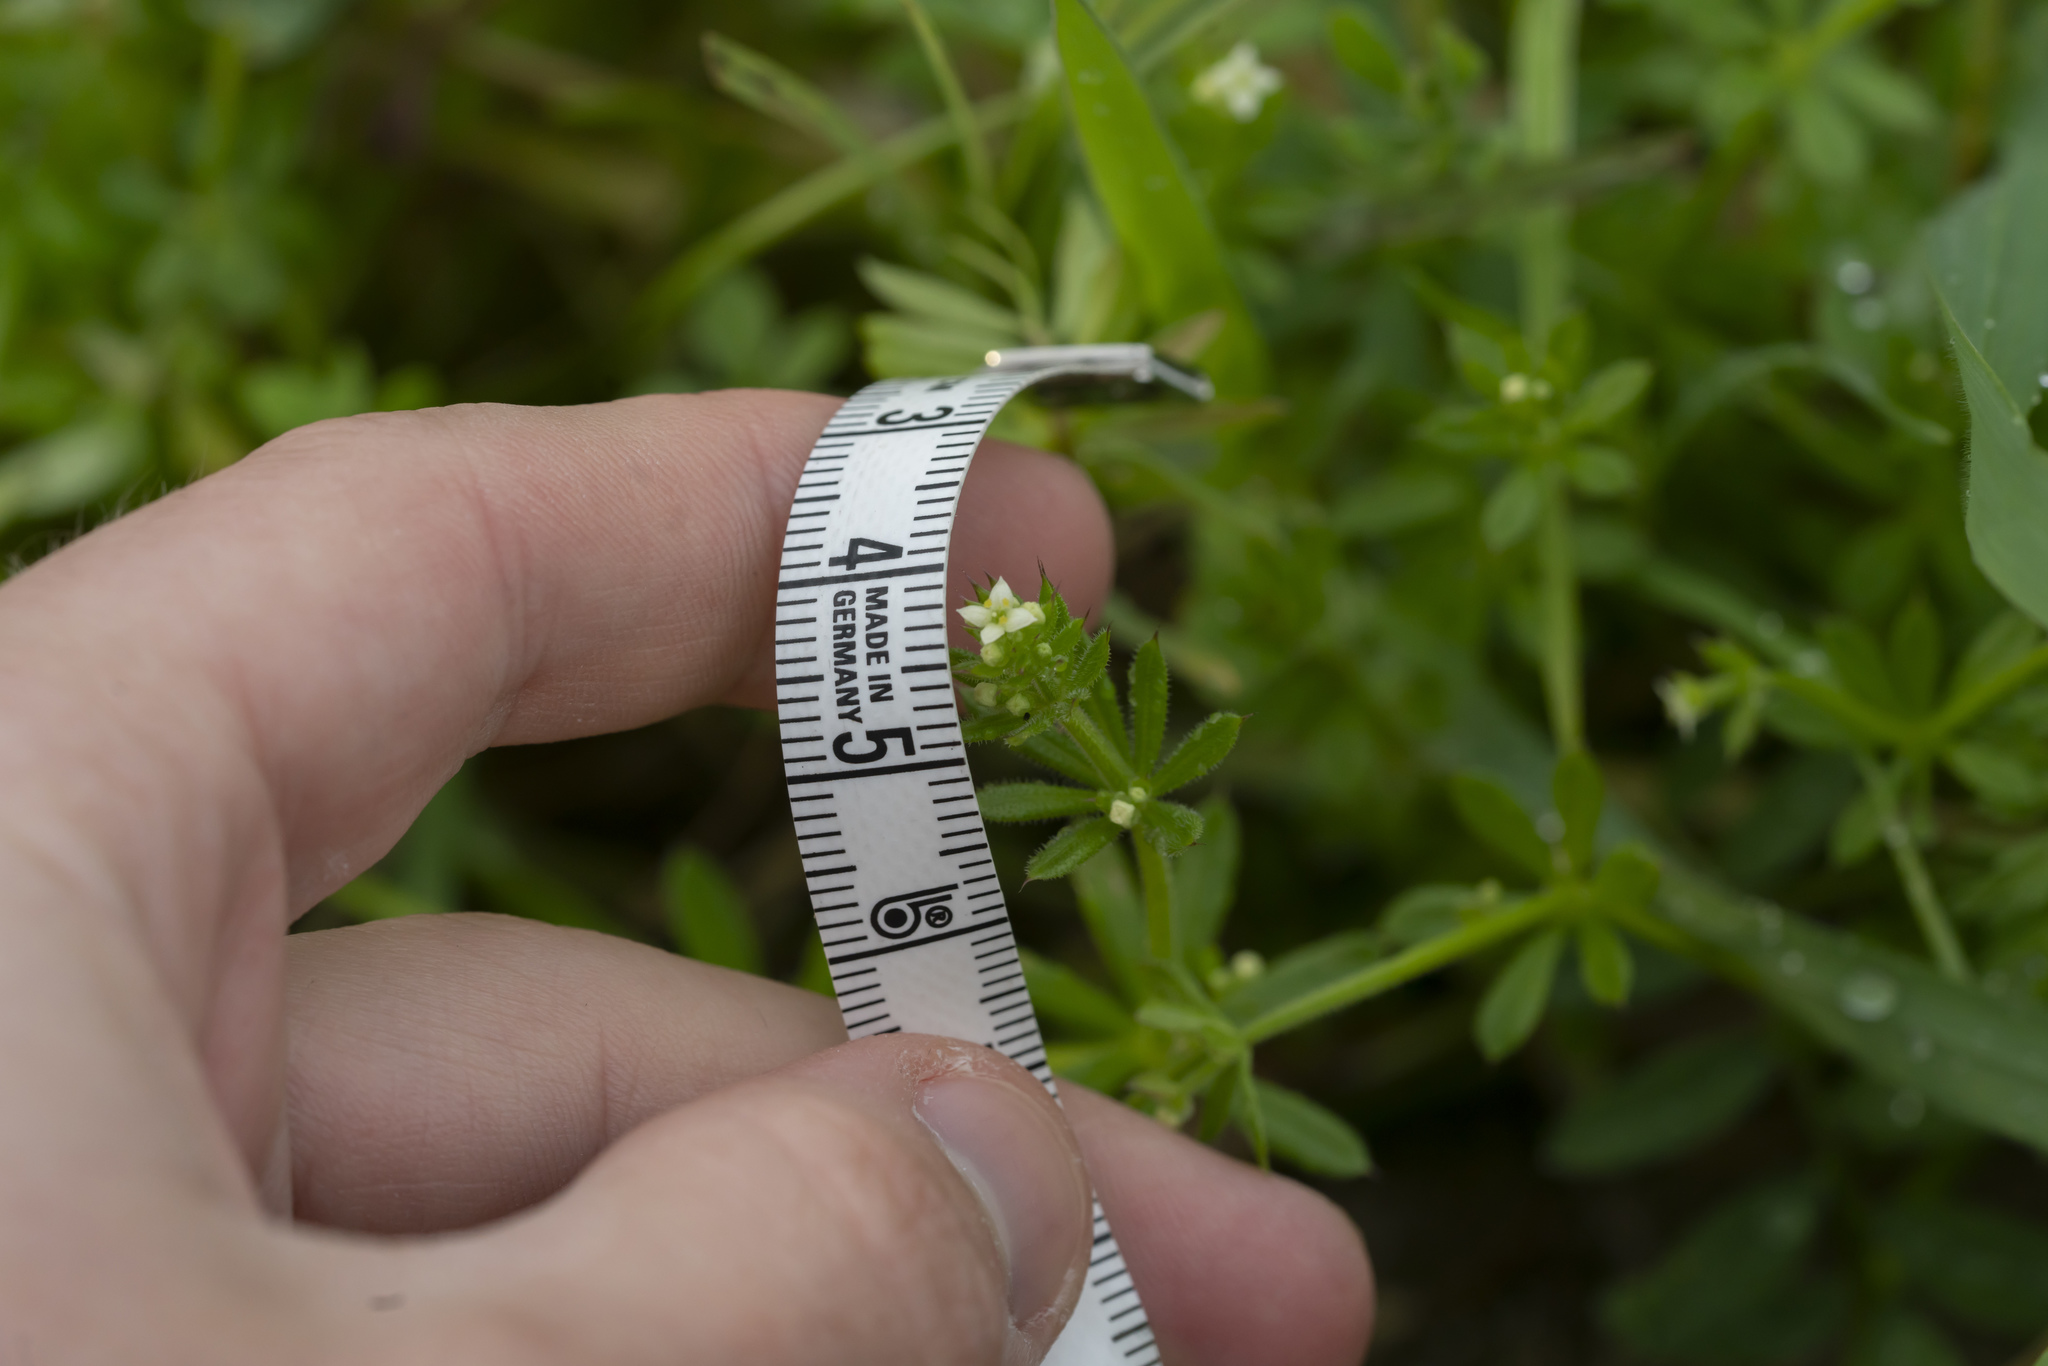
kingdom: Plantae
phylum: Tracheophyta
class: Magnoliopsida
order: Gentianales
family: Rubiaceae
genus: Galium
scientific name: Galium aparine
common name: Cleavers
